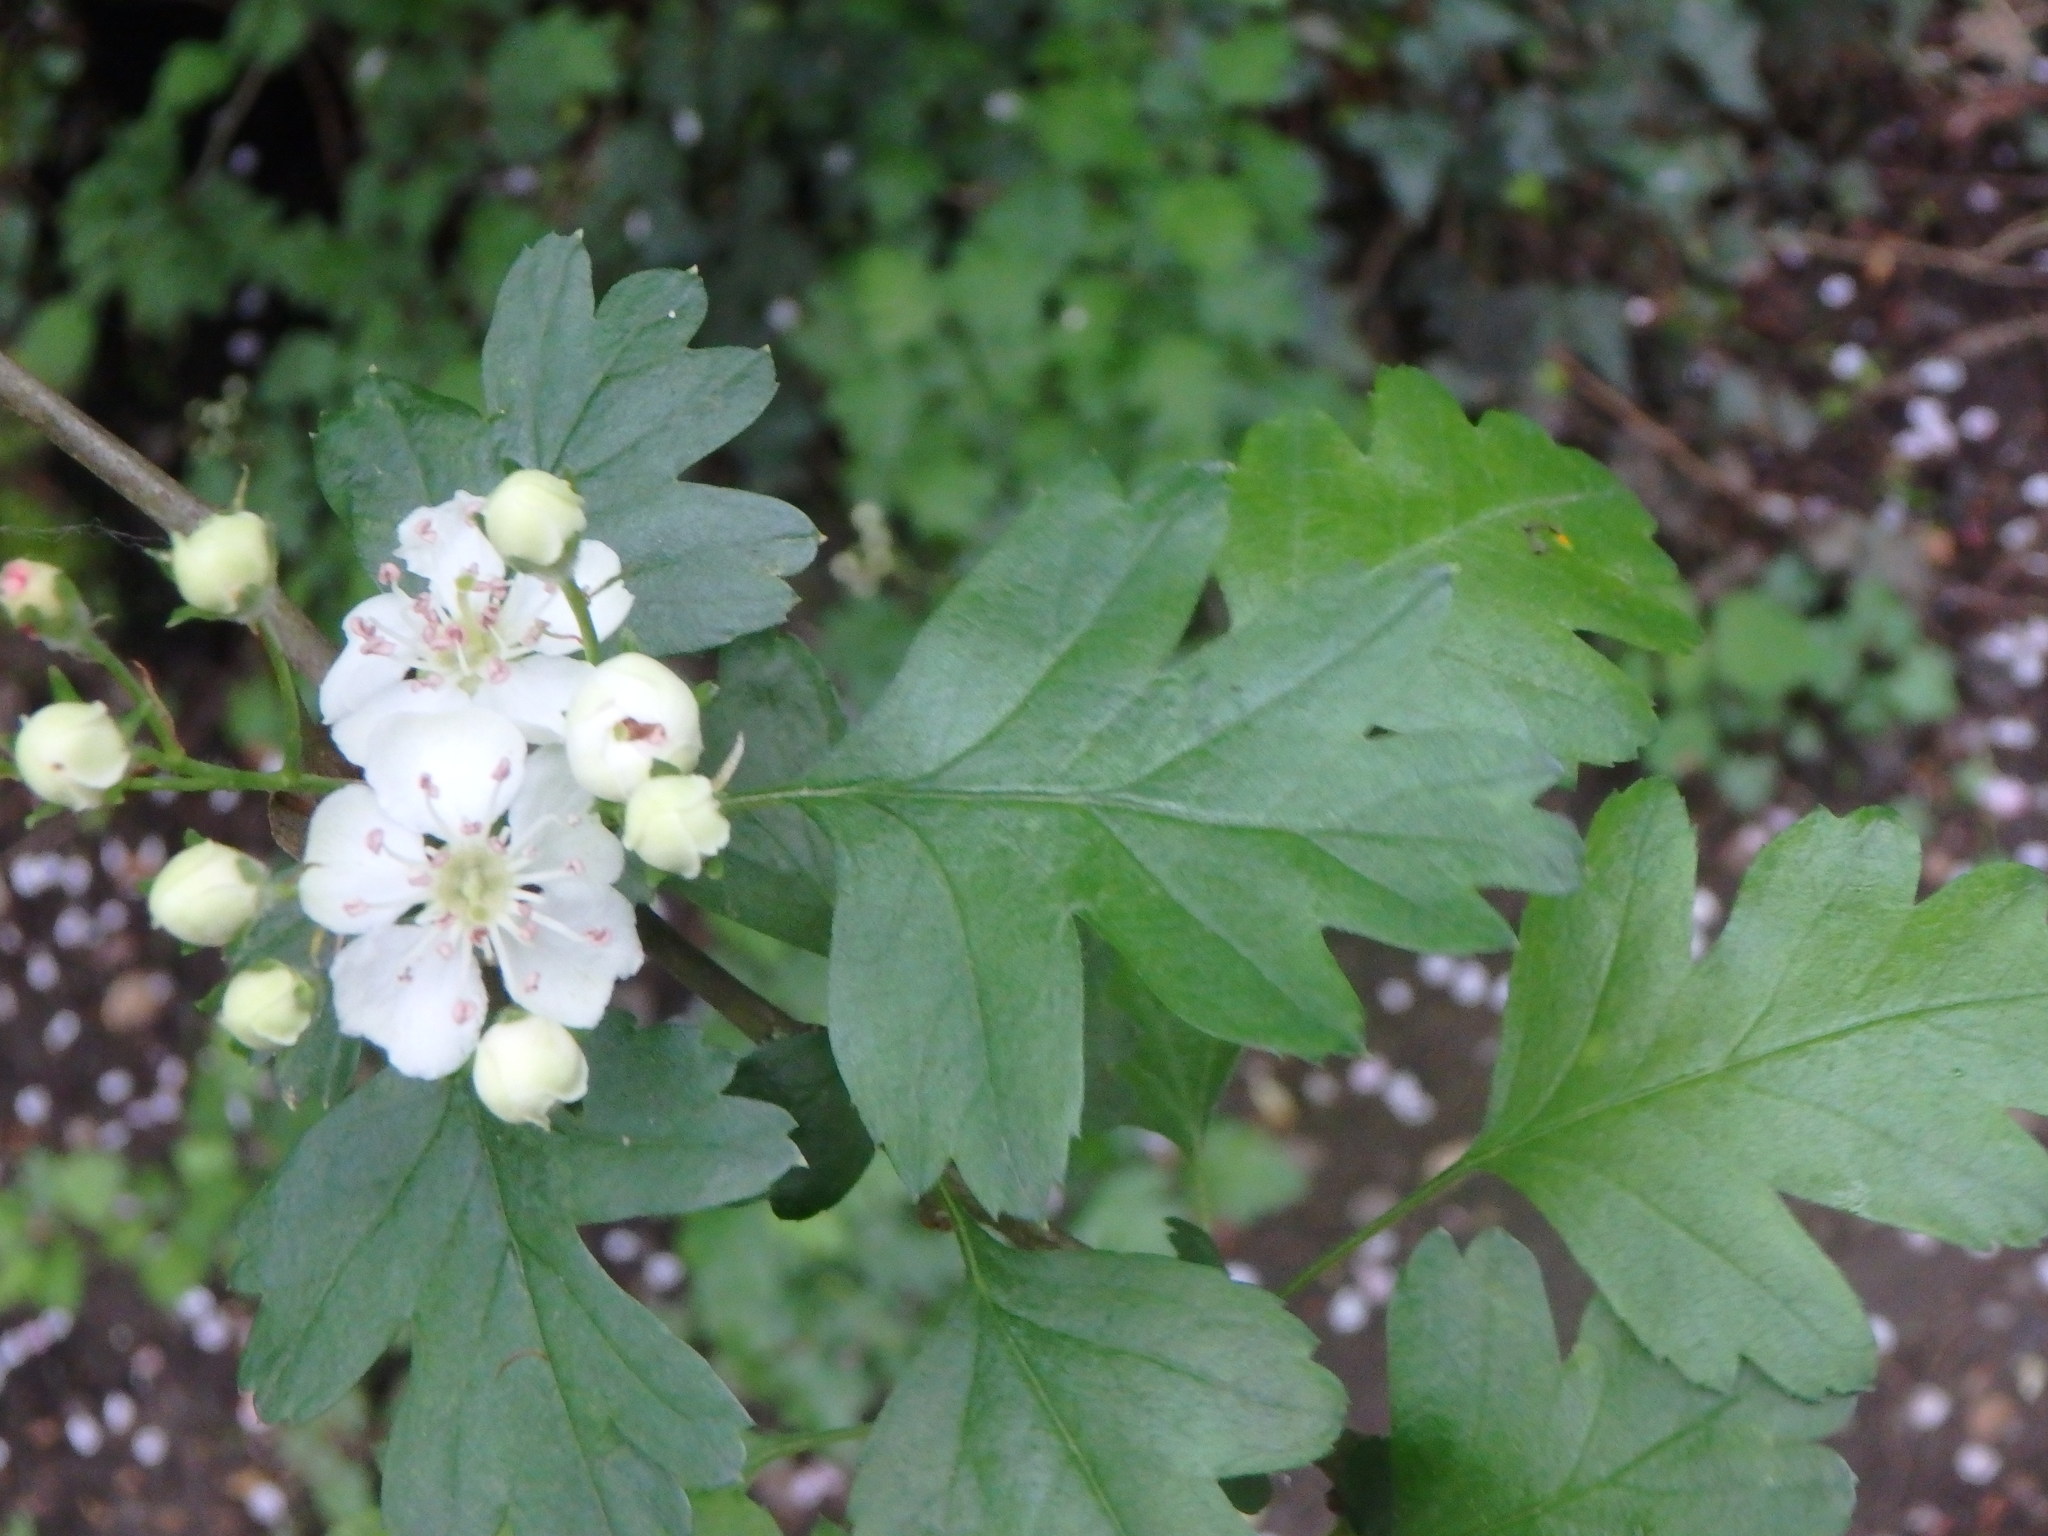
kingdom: Plantae
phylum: Tracheophyta
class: Magnoliopsida
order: Rosales
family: Rosaceae
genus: Crataegus
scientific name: Crataegus monogyna
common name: Hawthorn
